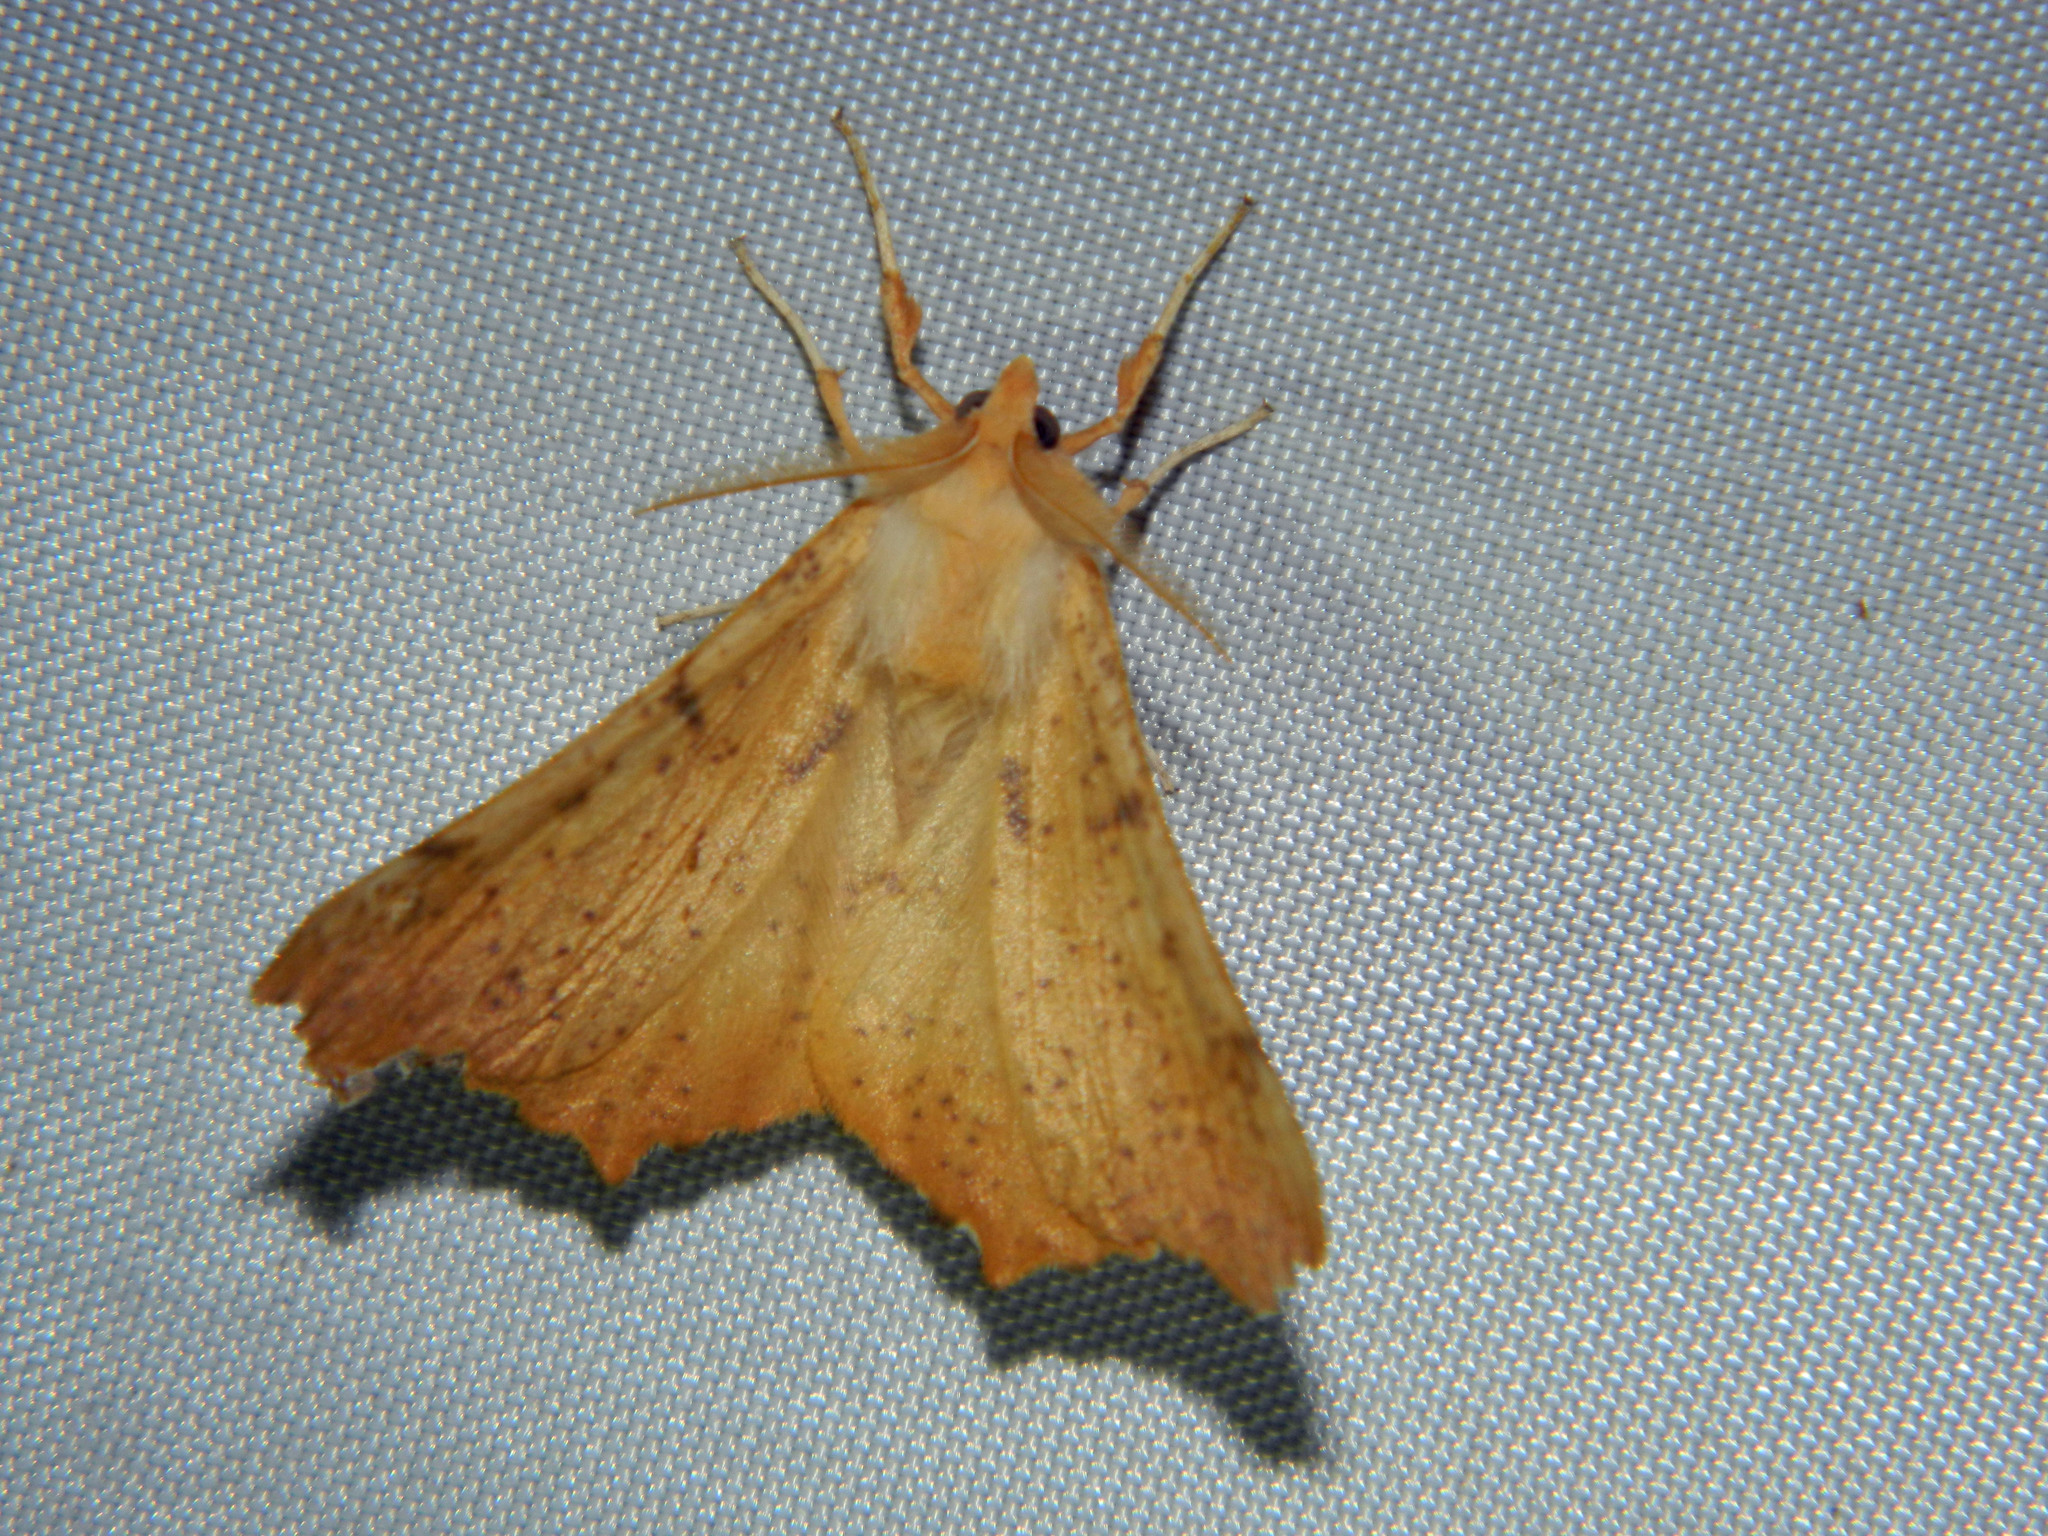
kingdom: Animalia
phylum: Arthropoda
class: Insecta
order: Lepidoptera
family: Geometridae
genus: Ennomos
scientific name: Ennomos magnaria
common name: Maple spanworm
